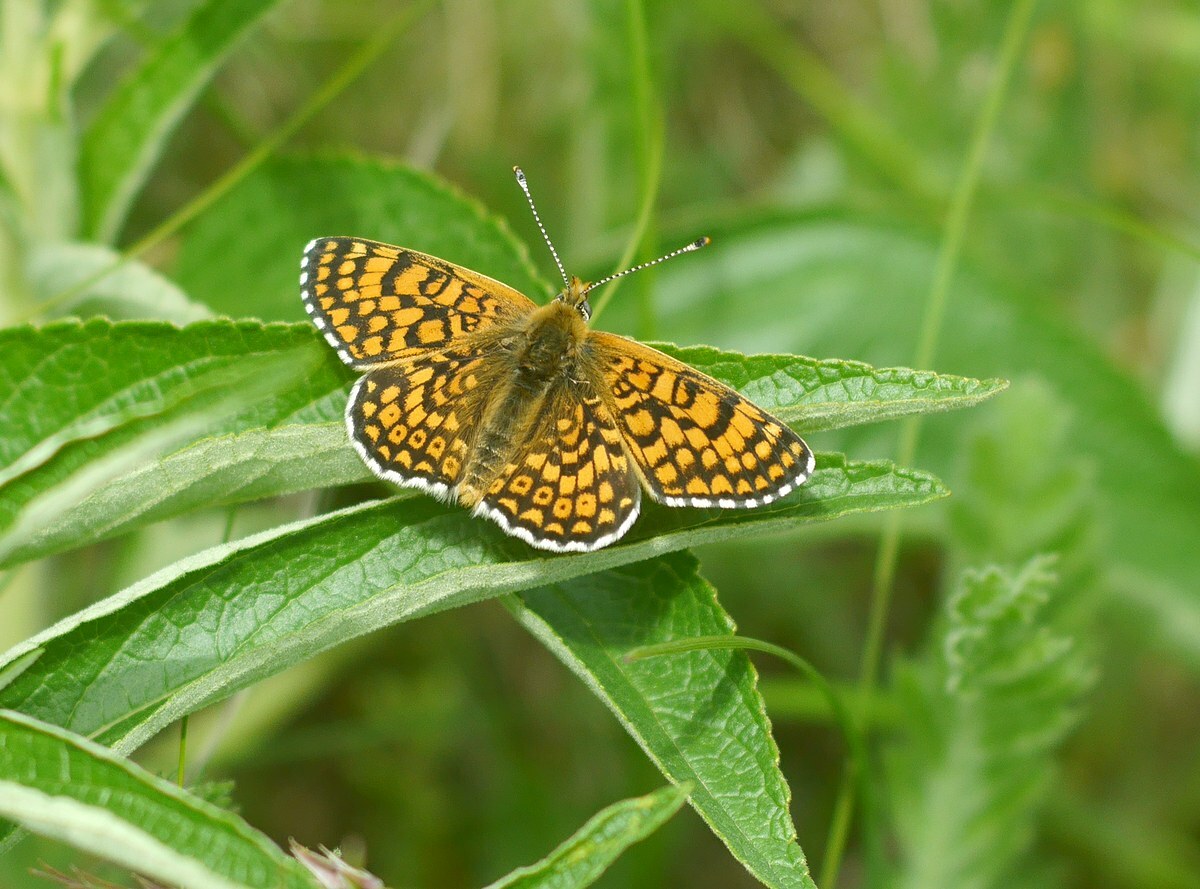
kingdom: Animalia
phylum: Arthropoda
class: Insecta
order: Lepidoptera
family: Nymphalidae
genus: Melitaea
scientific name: Melitaea cinxia
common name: Glanville fritillary
